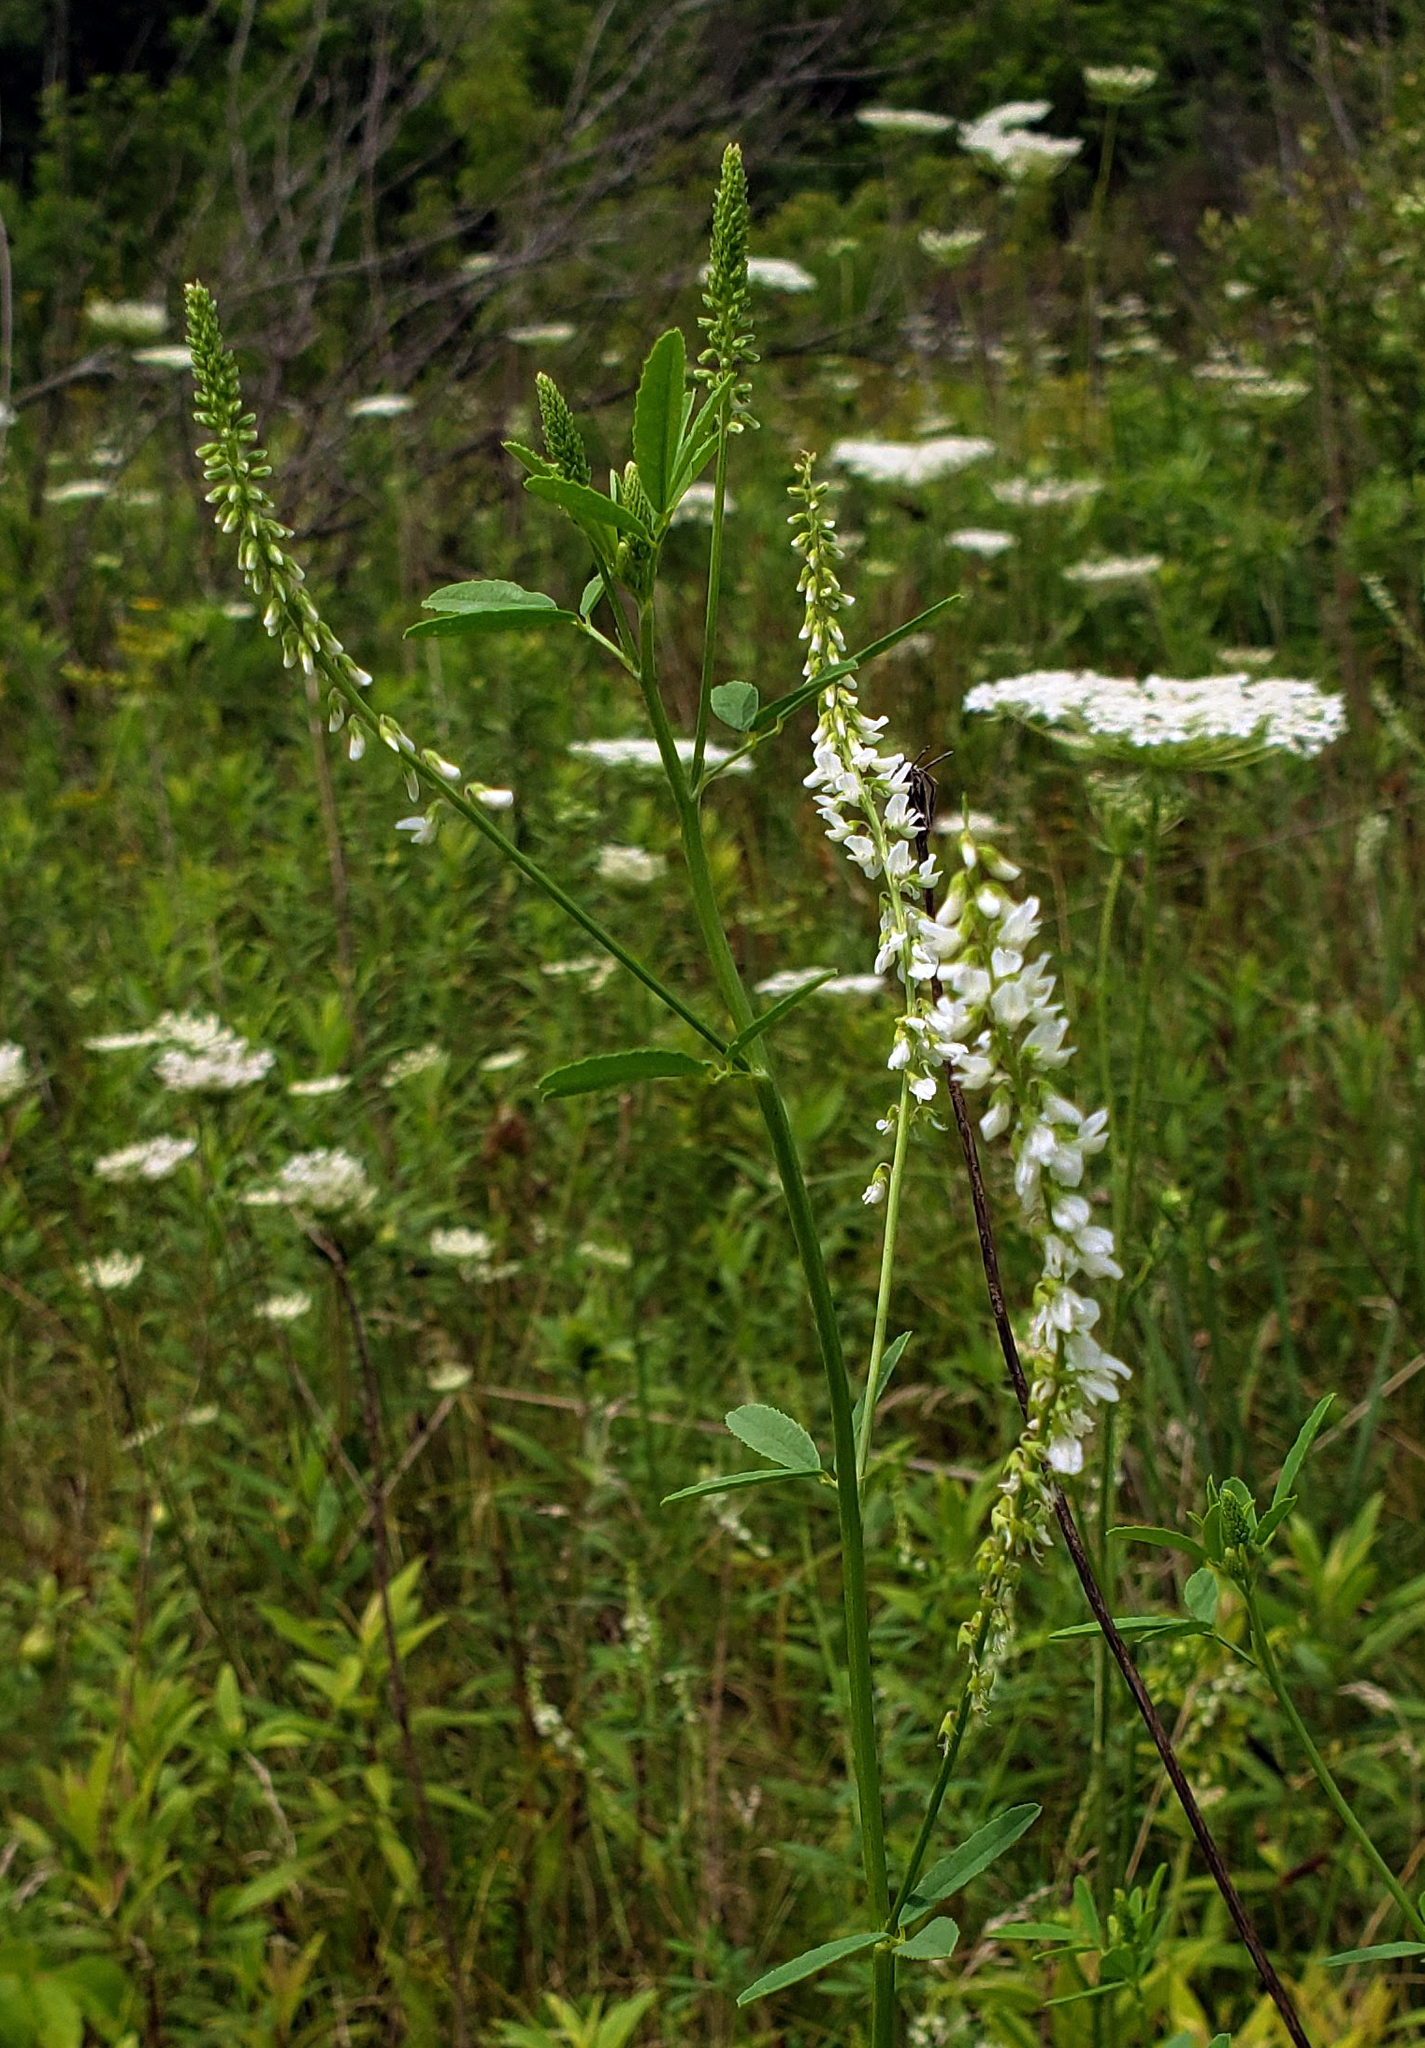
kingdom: Plantae
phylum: Tracheophyta
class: Magnoliopsida
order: Fabales
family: Fabaceae
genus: Melilotus
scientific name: Melilotus albus
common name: White melilot
